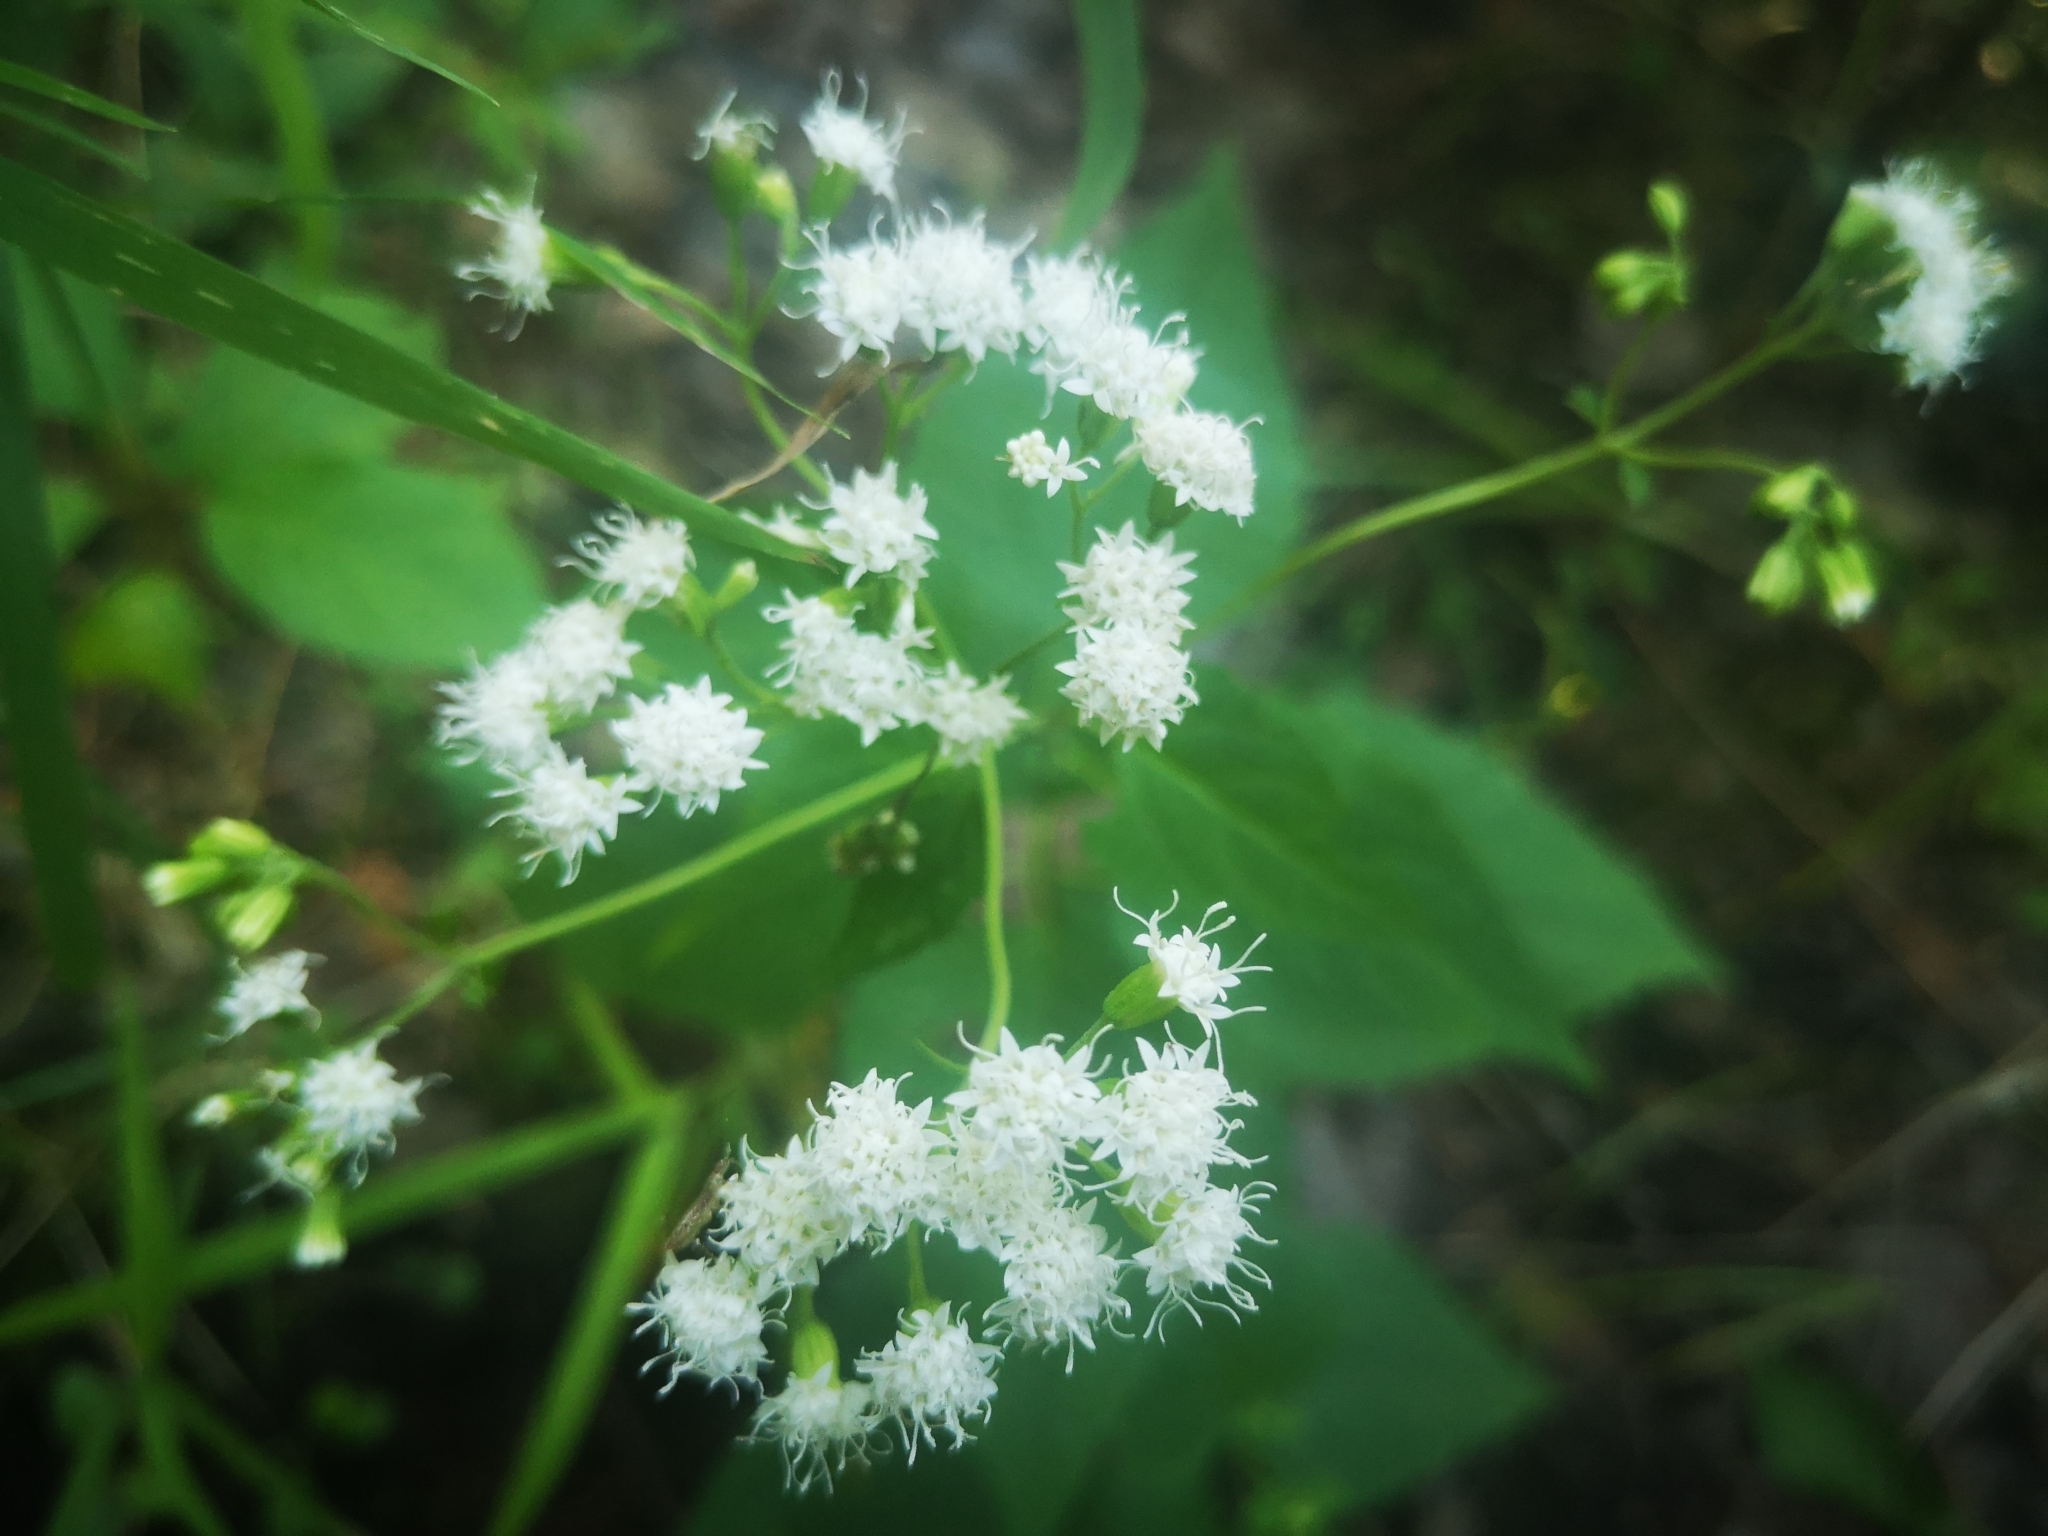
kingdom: Plantae
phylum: Tracheophyta
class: Magnoliopsida
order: Asterales
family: Asteraceae
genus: Ageratina
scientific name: Ageratina altissima
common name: White snakeroot
